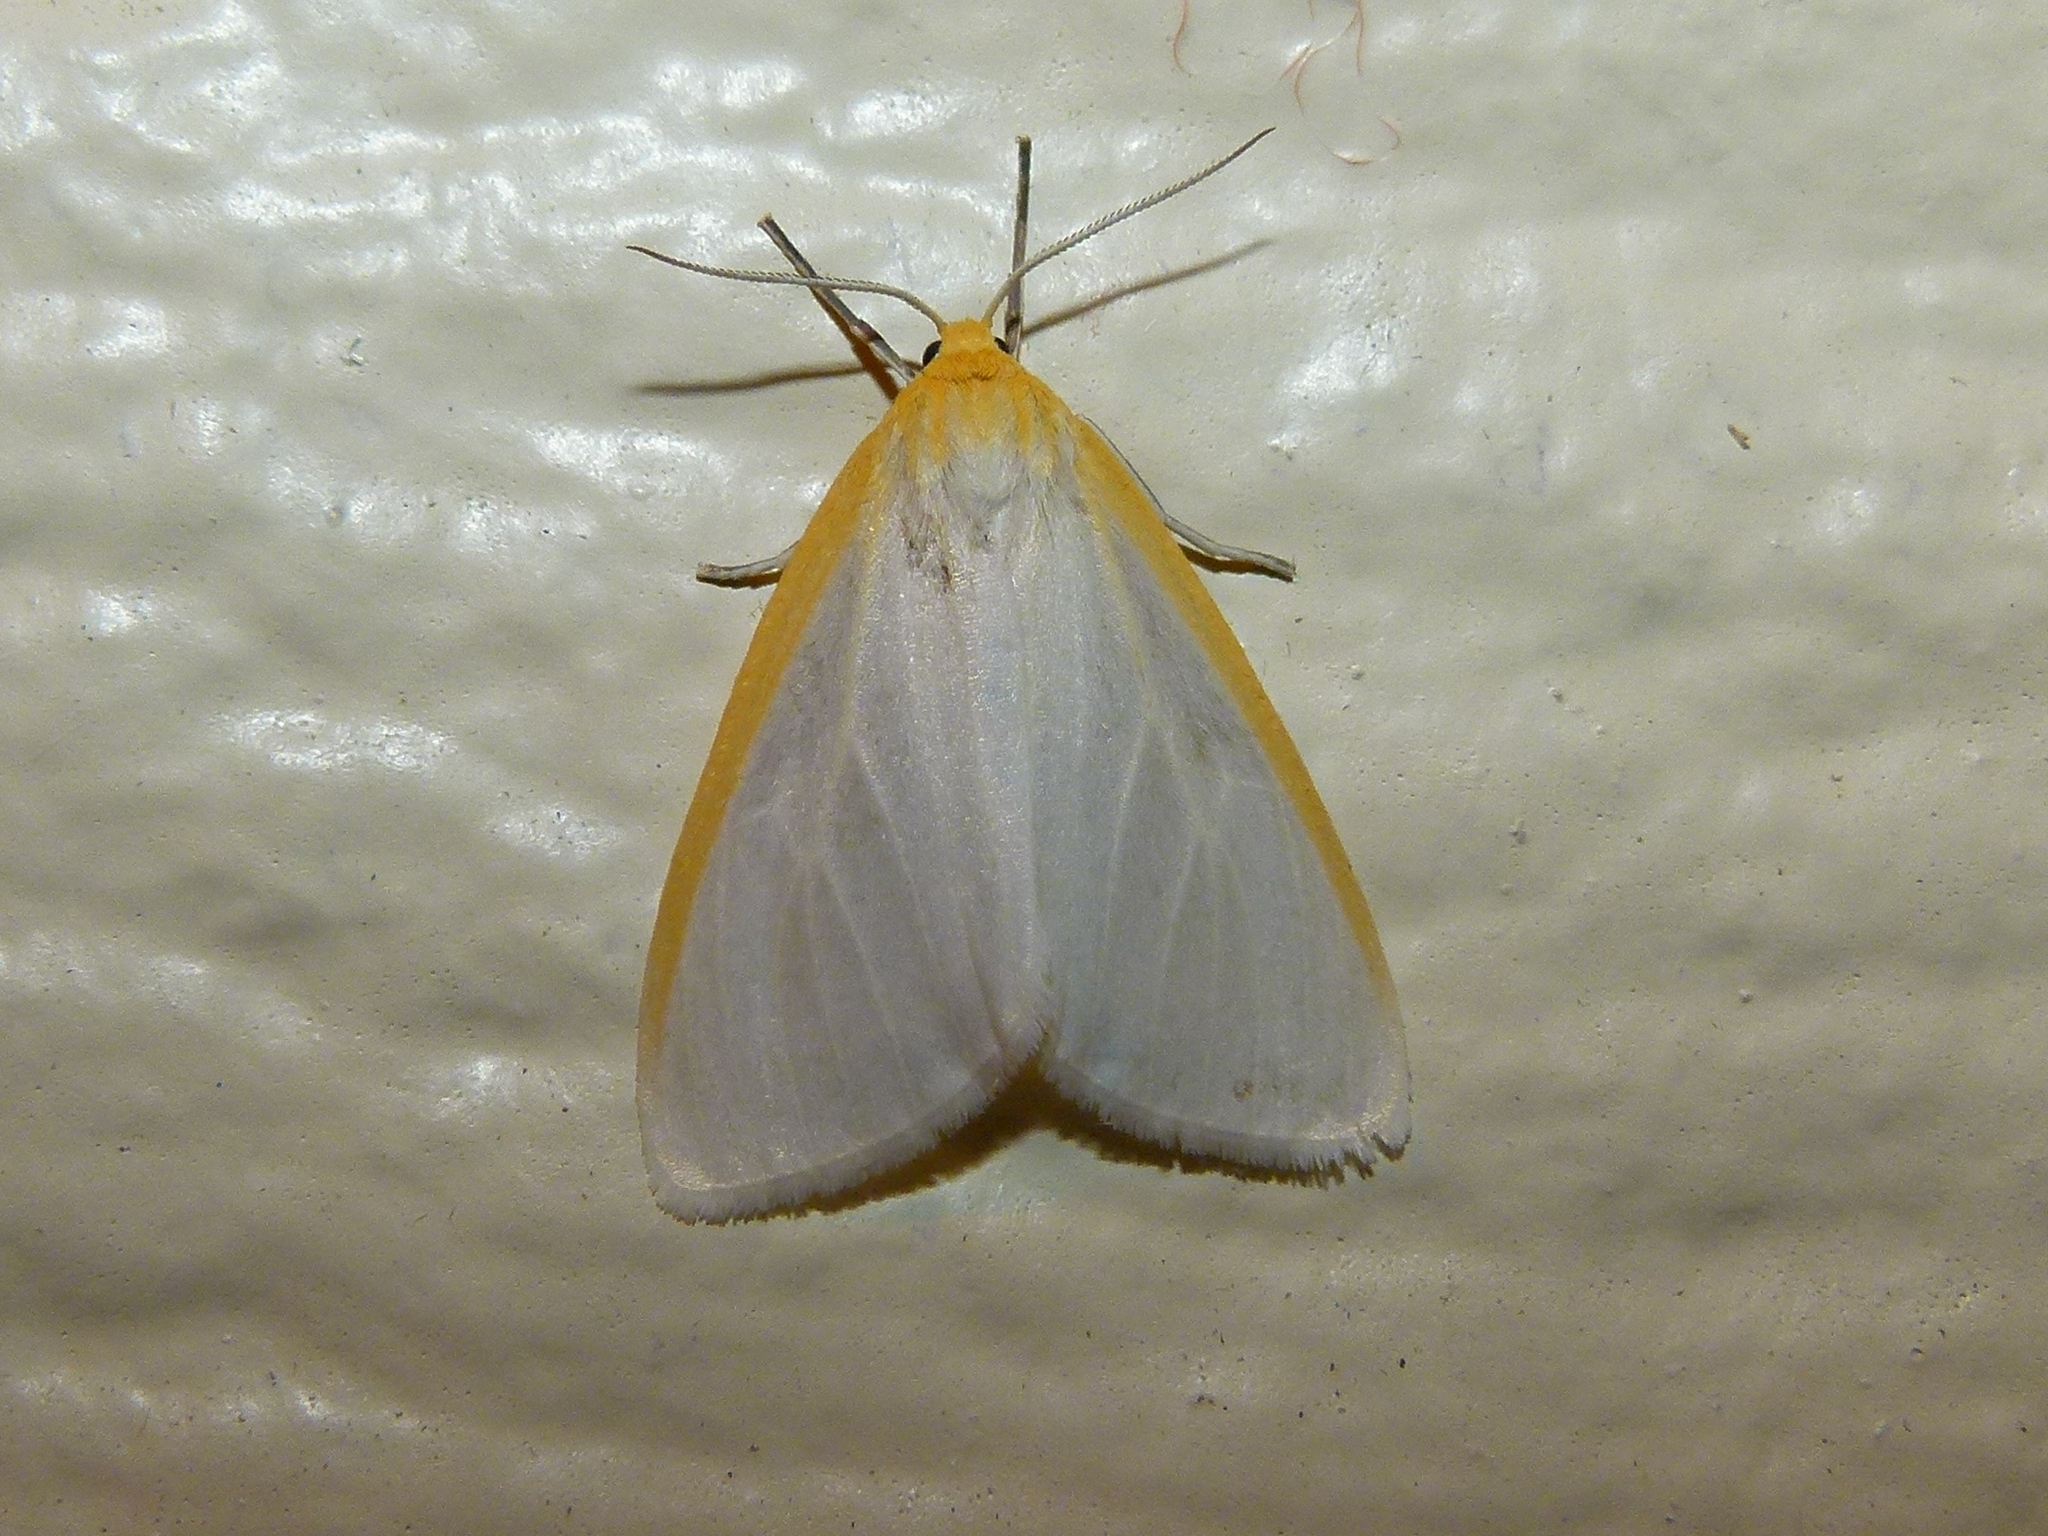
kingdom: Animalia
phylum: Arthropoda
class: Insecta
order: Lepidoptera
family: Erebidae
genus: Cycnia
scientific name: Cycnia tenera
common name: Delicate cycnia moth
